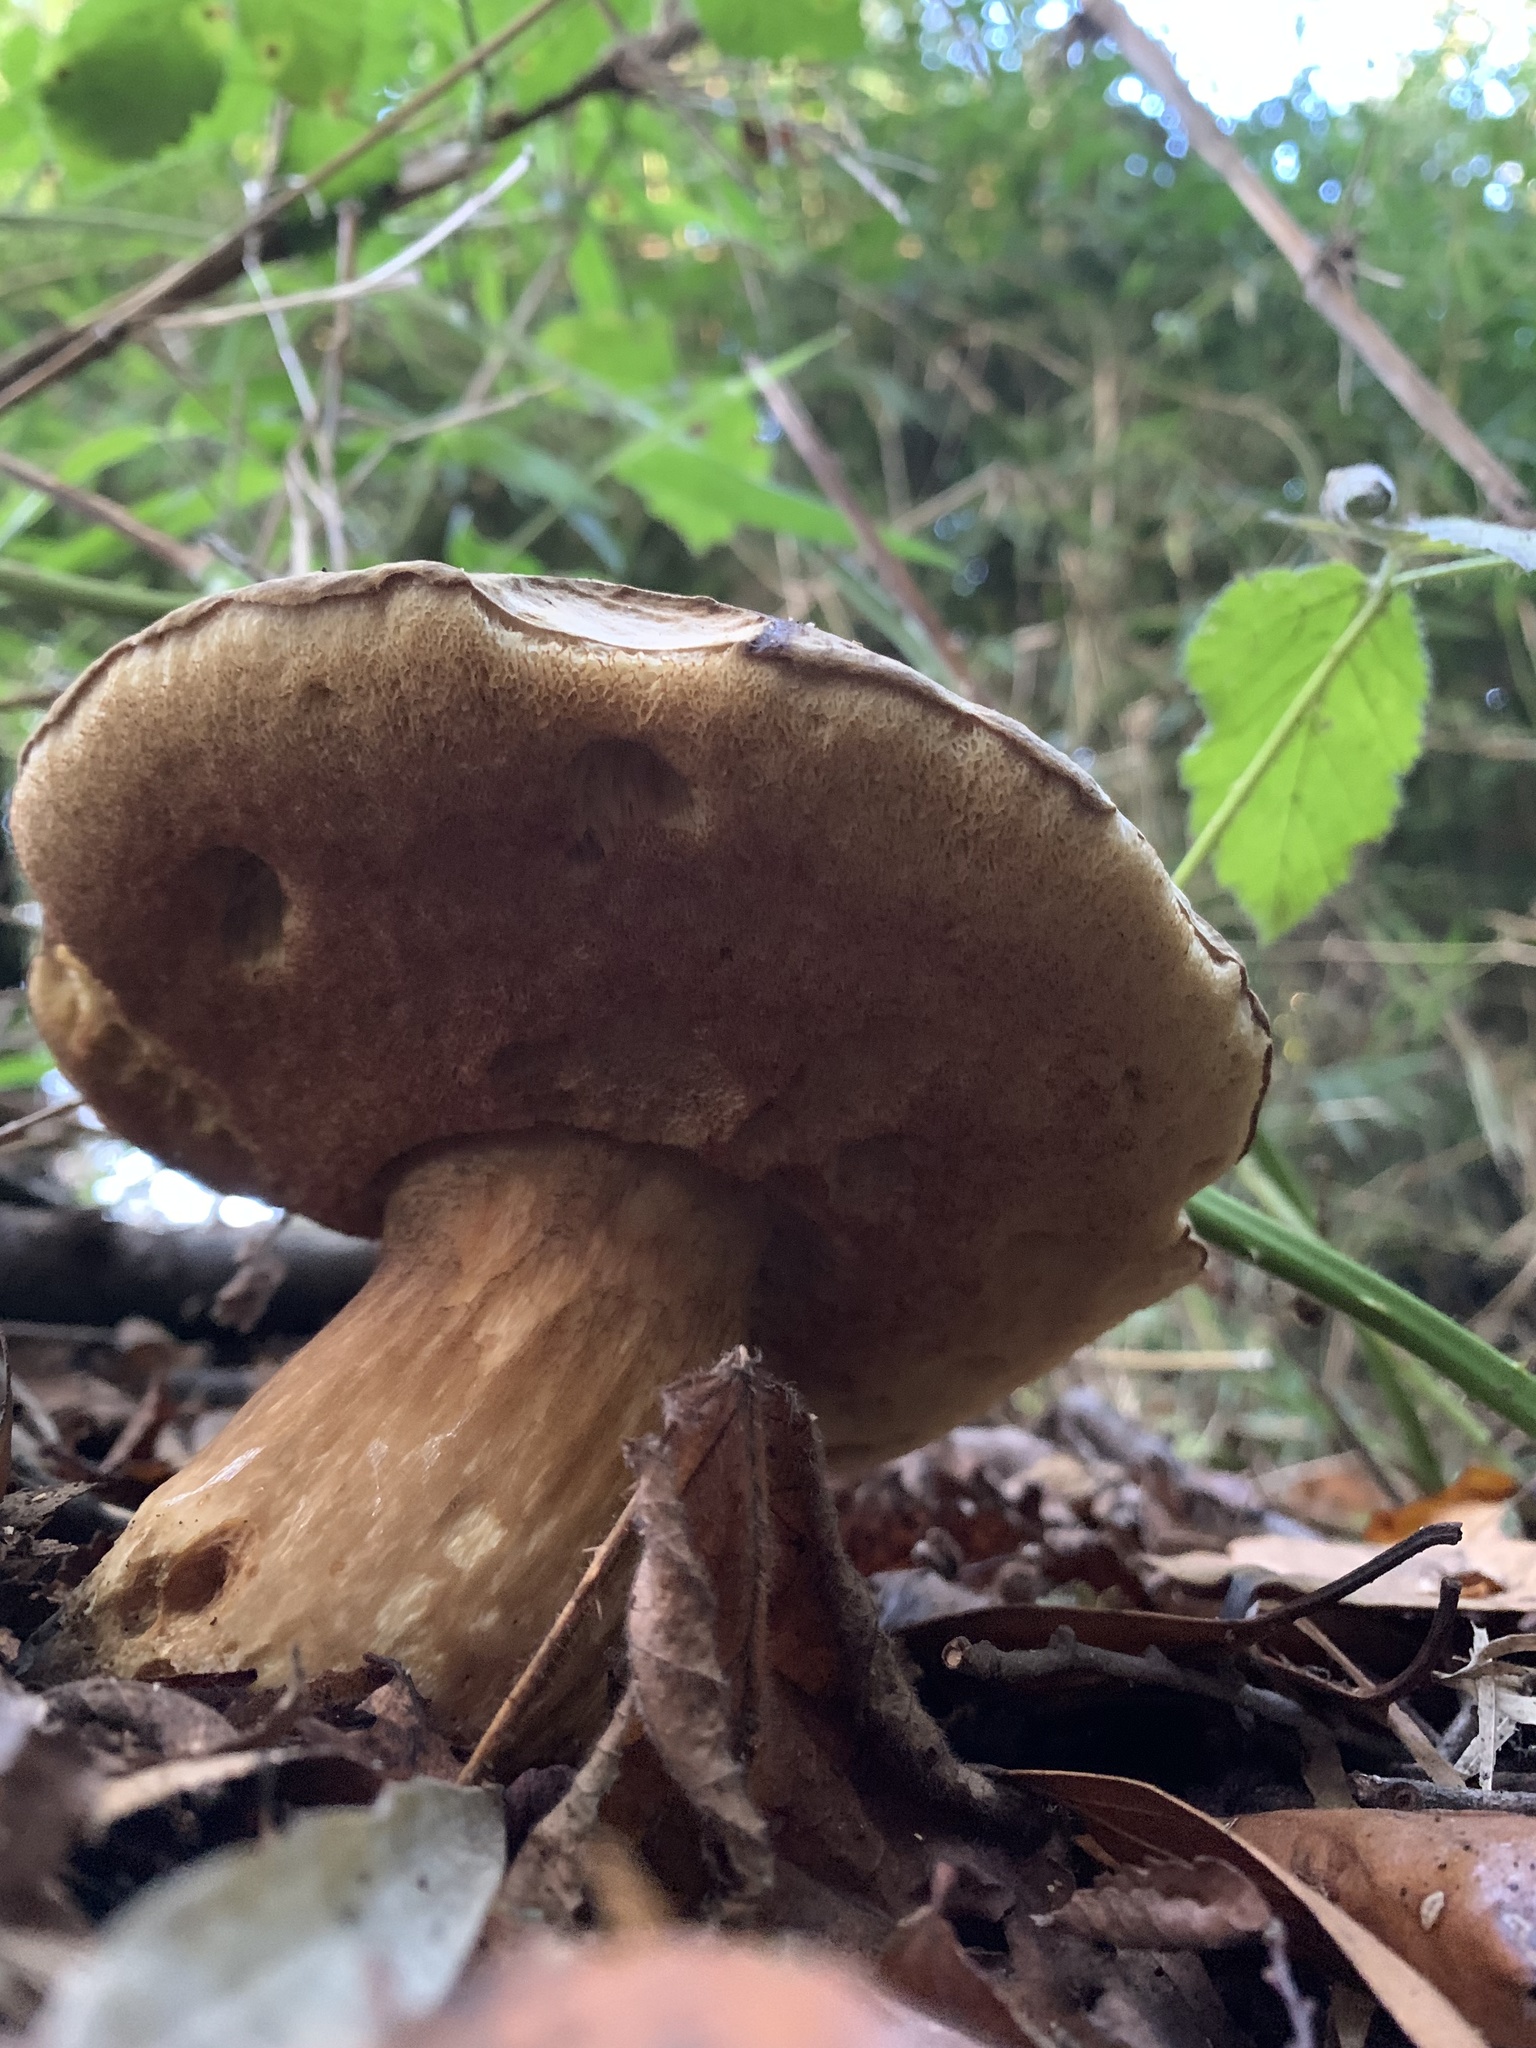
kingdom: Fungi
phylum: Basidiomycota
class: Agaricomycetes
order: Boletales
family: Boletaceae
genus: Boletus
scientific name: Boletus putidus
